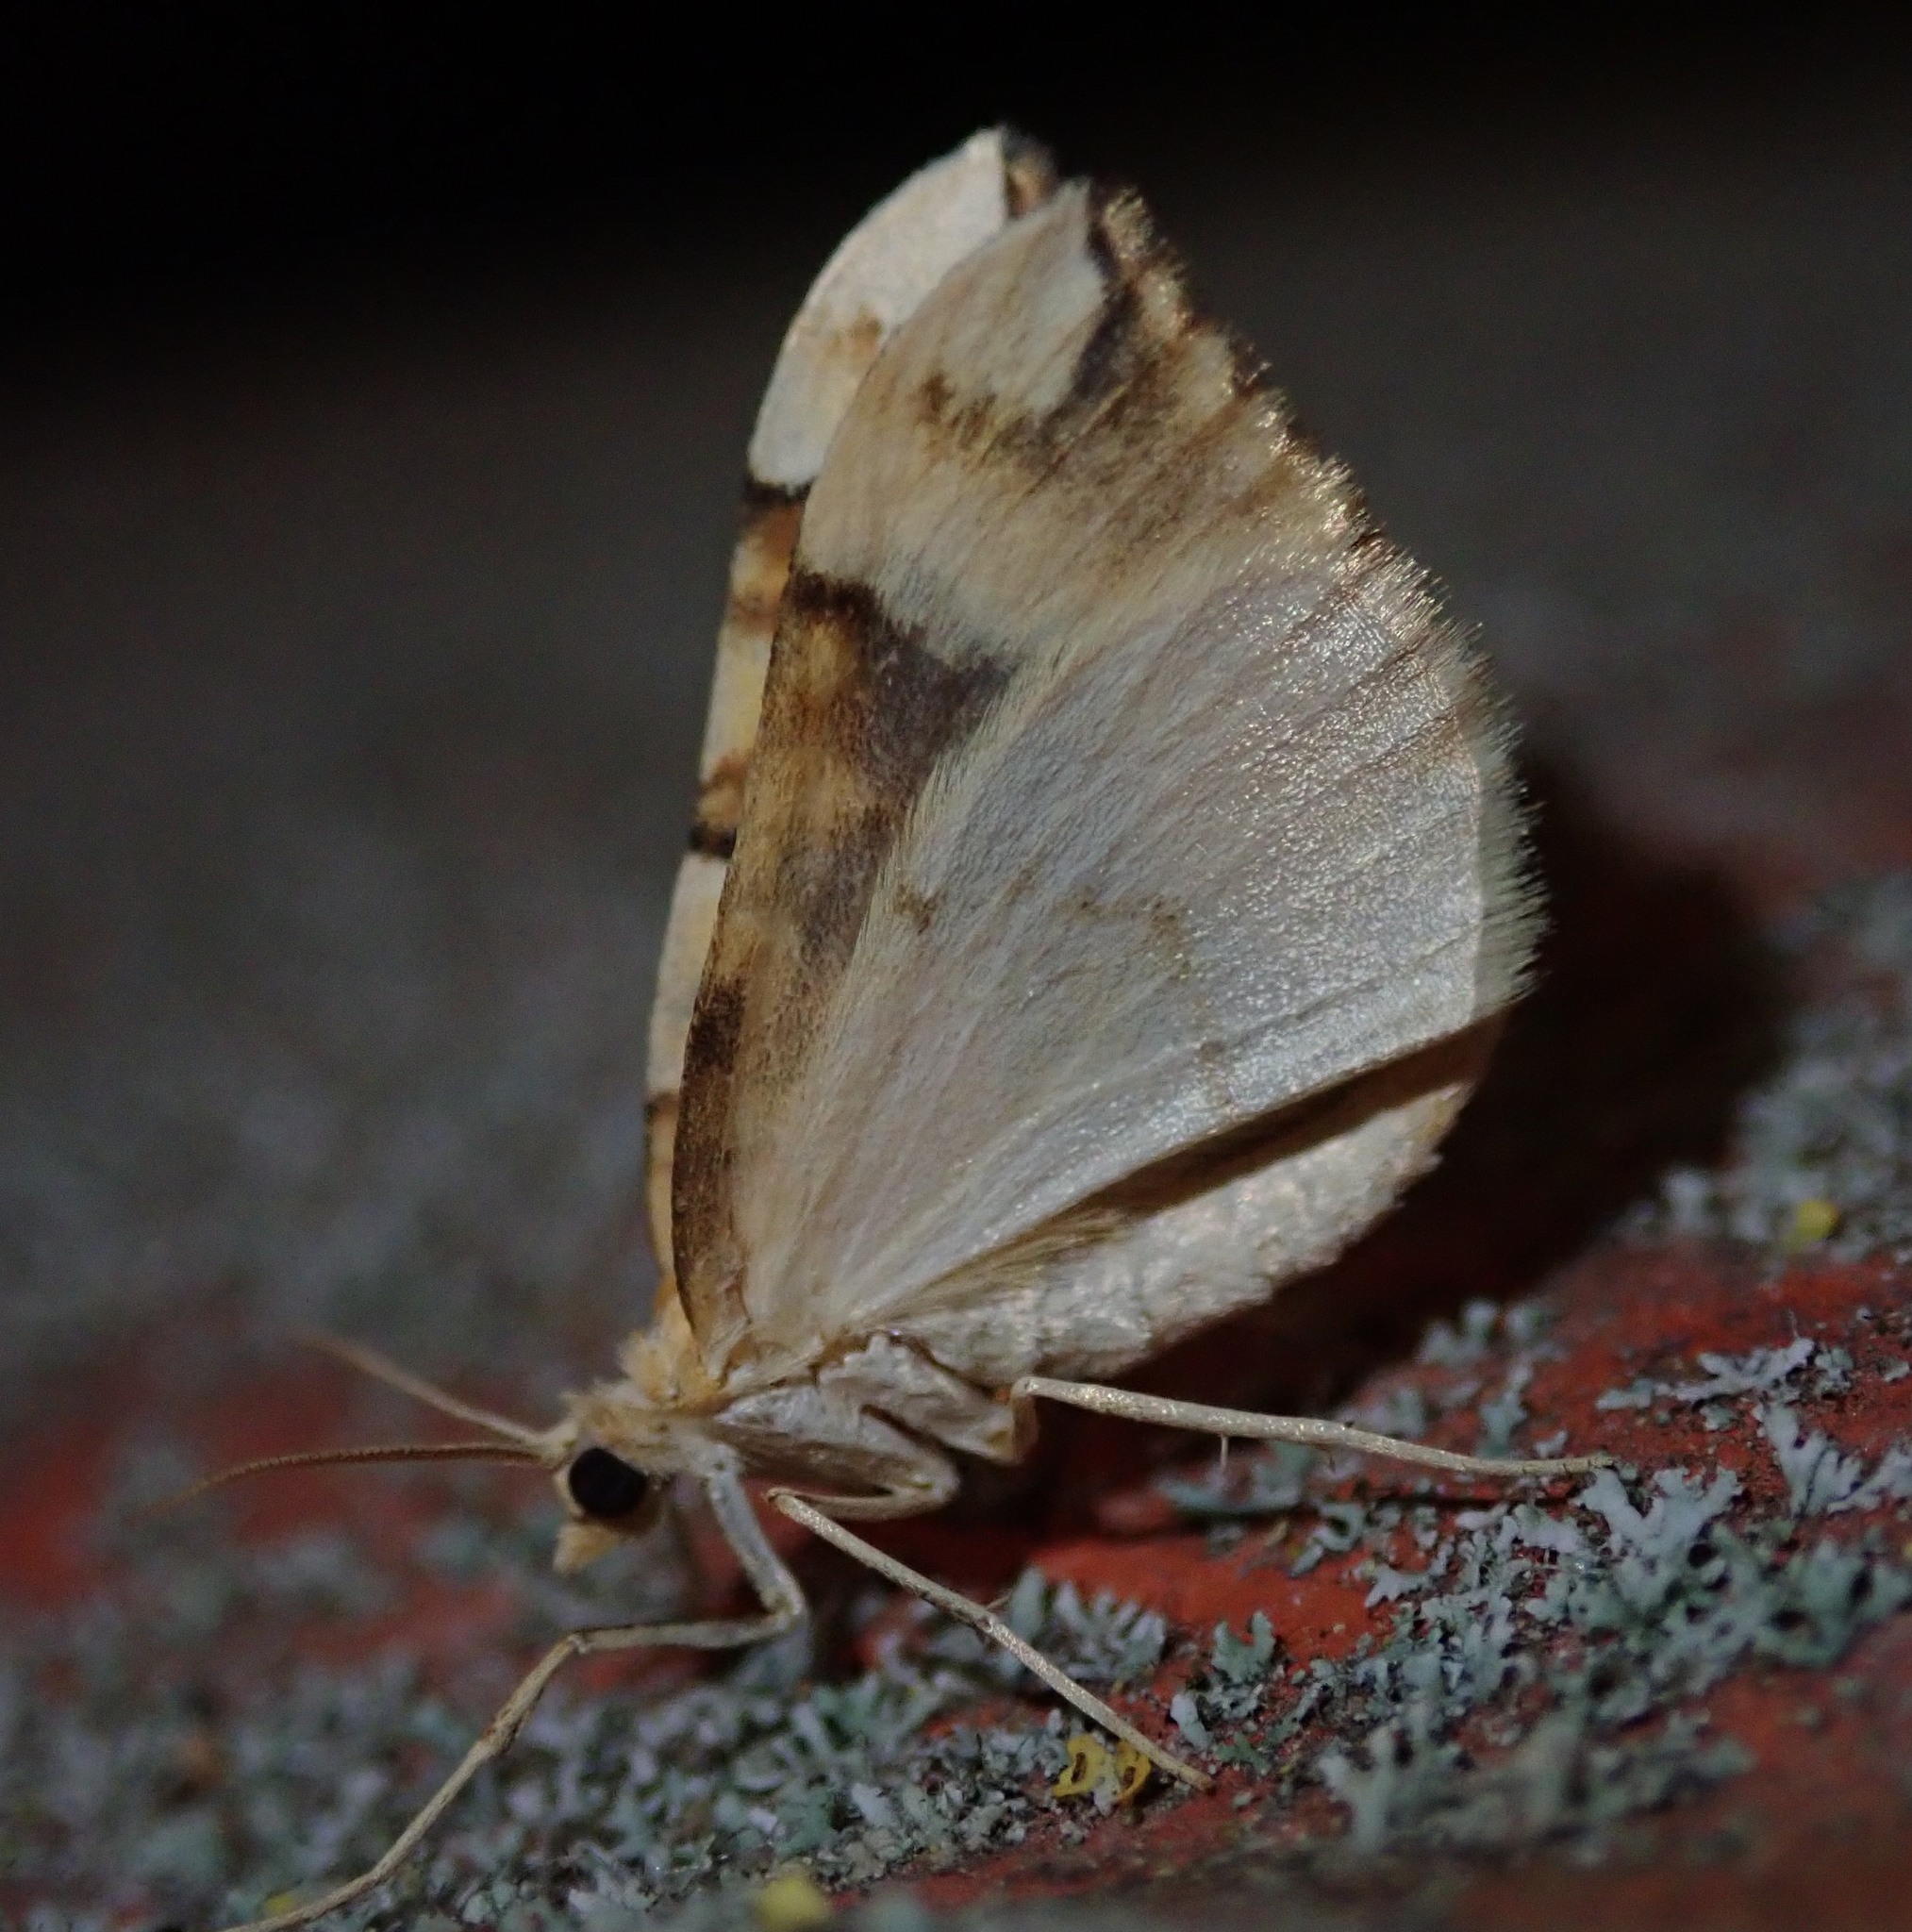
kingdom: Animalia
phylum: Arthropoda
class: Insecta
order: Lepidoptera
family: Geometridae
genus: Cidaria
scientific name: Cidaria fulvata
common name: Barred yellow
